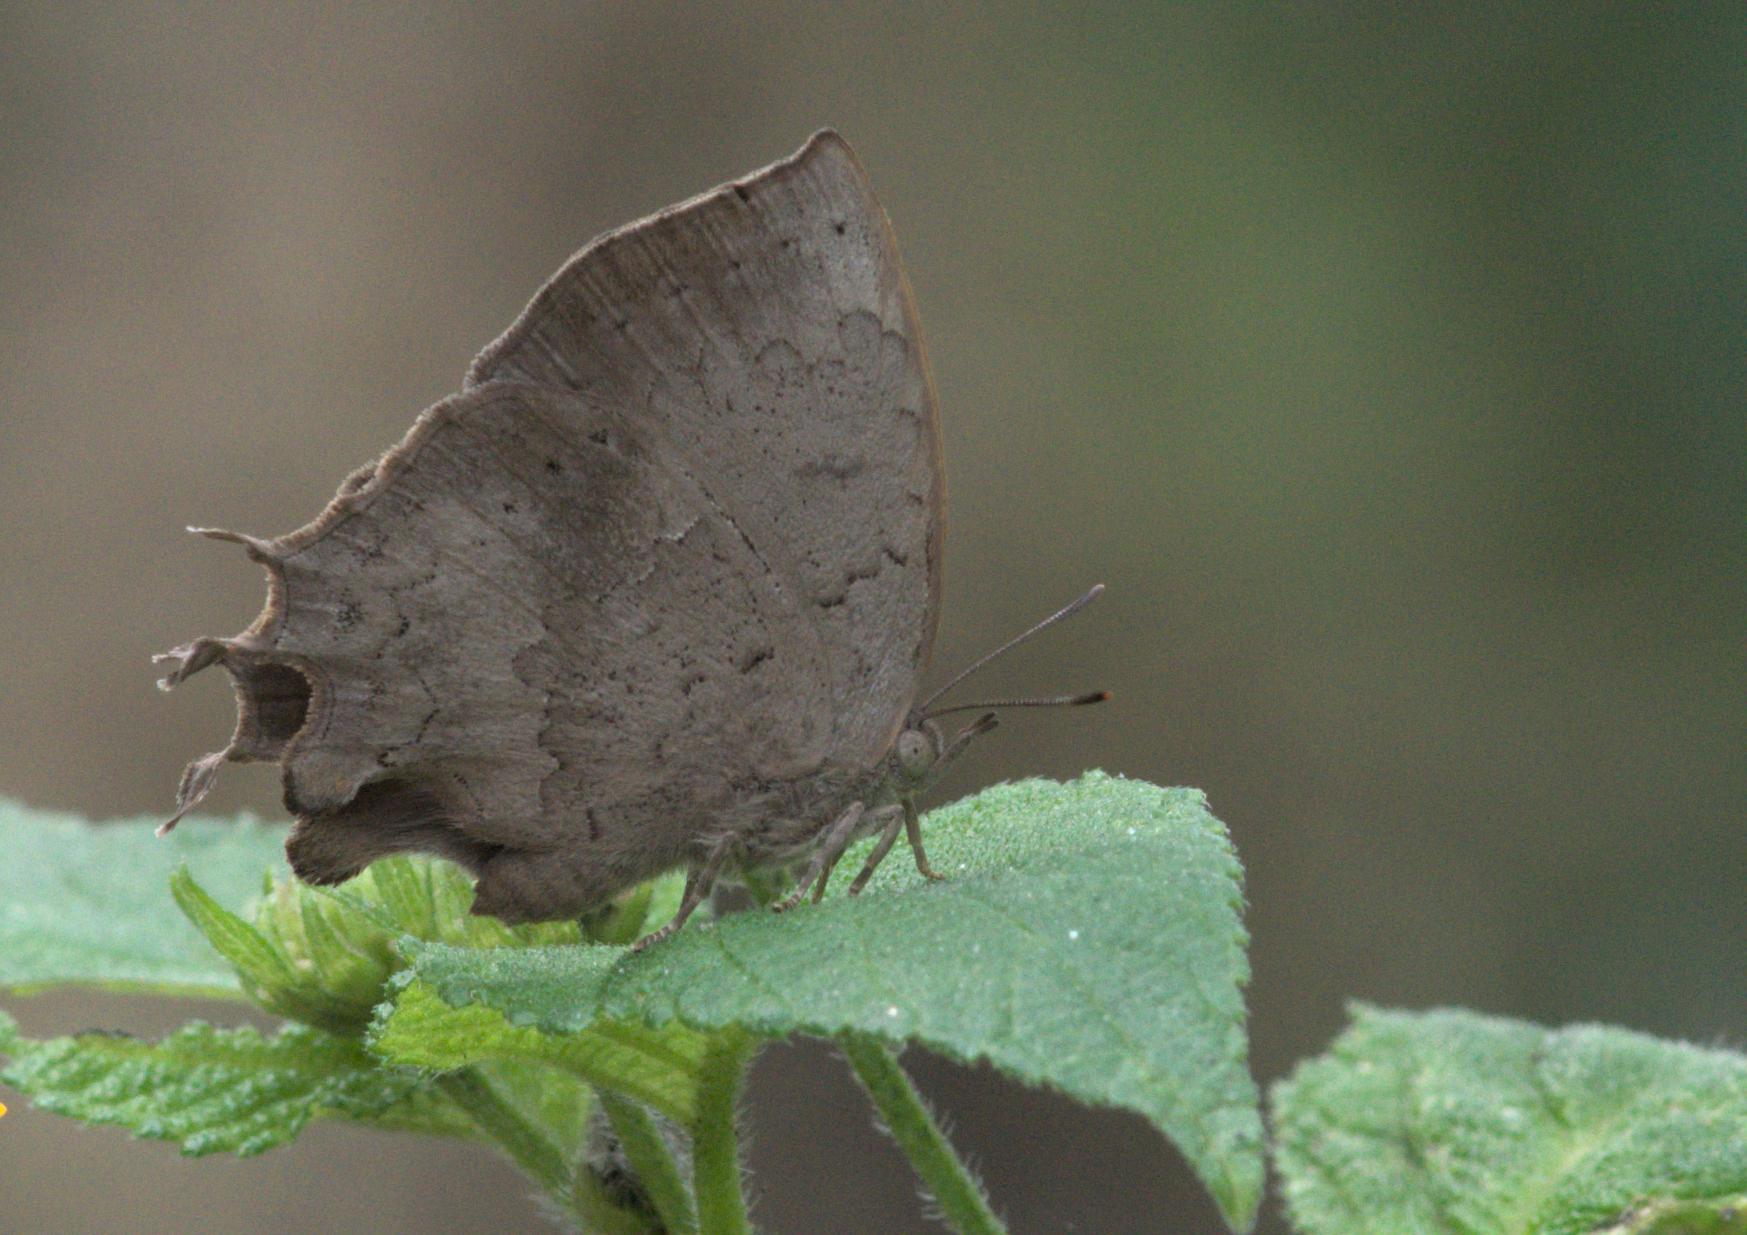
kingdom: Animalia
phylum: Arthropoda
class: Insecta
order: Lepidoptera
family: Lycaenidae
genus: Surendra
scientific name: Surendra quercetorum
